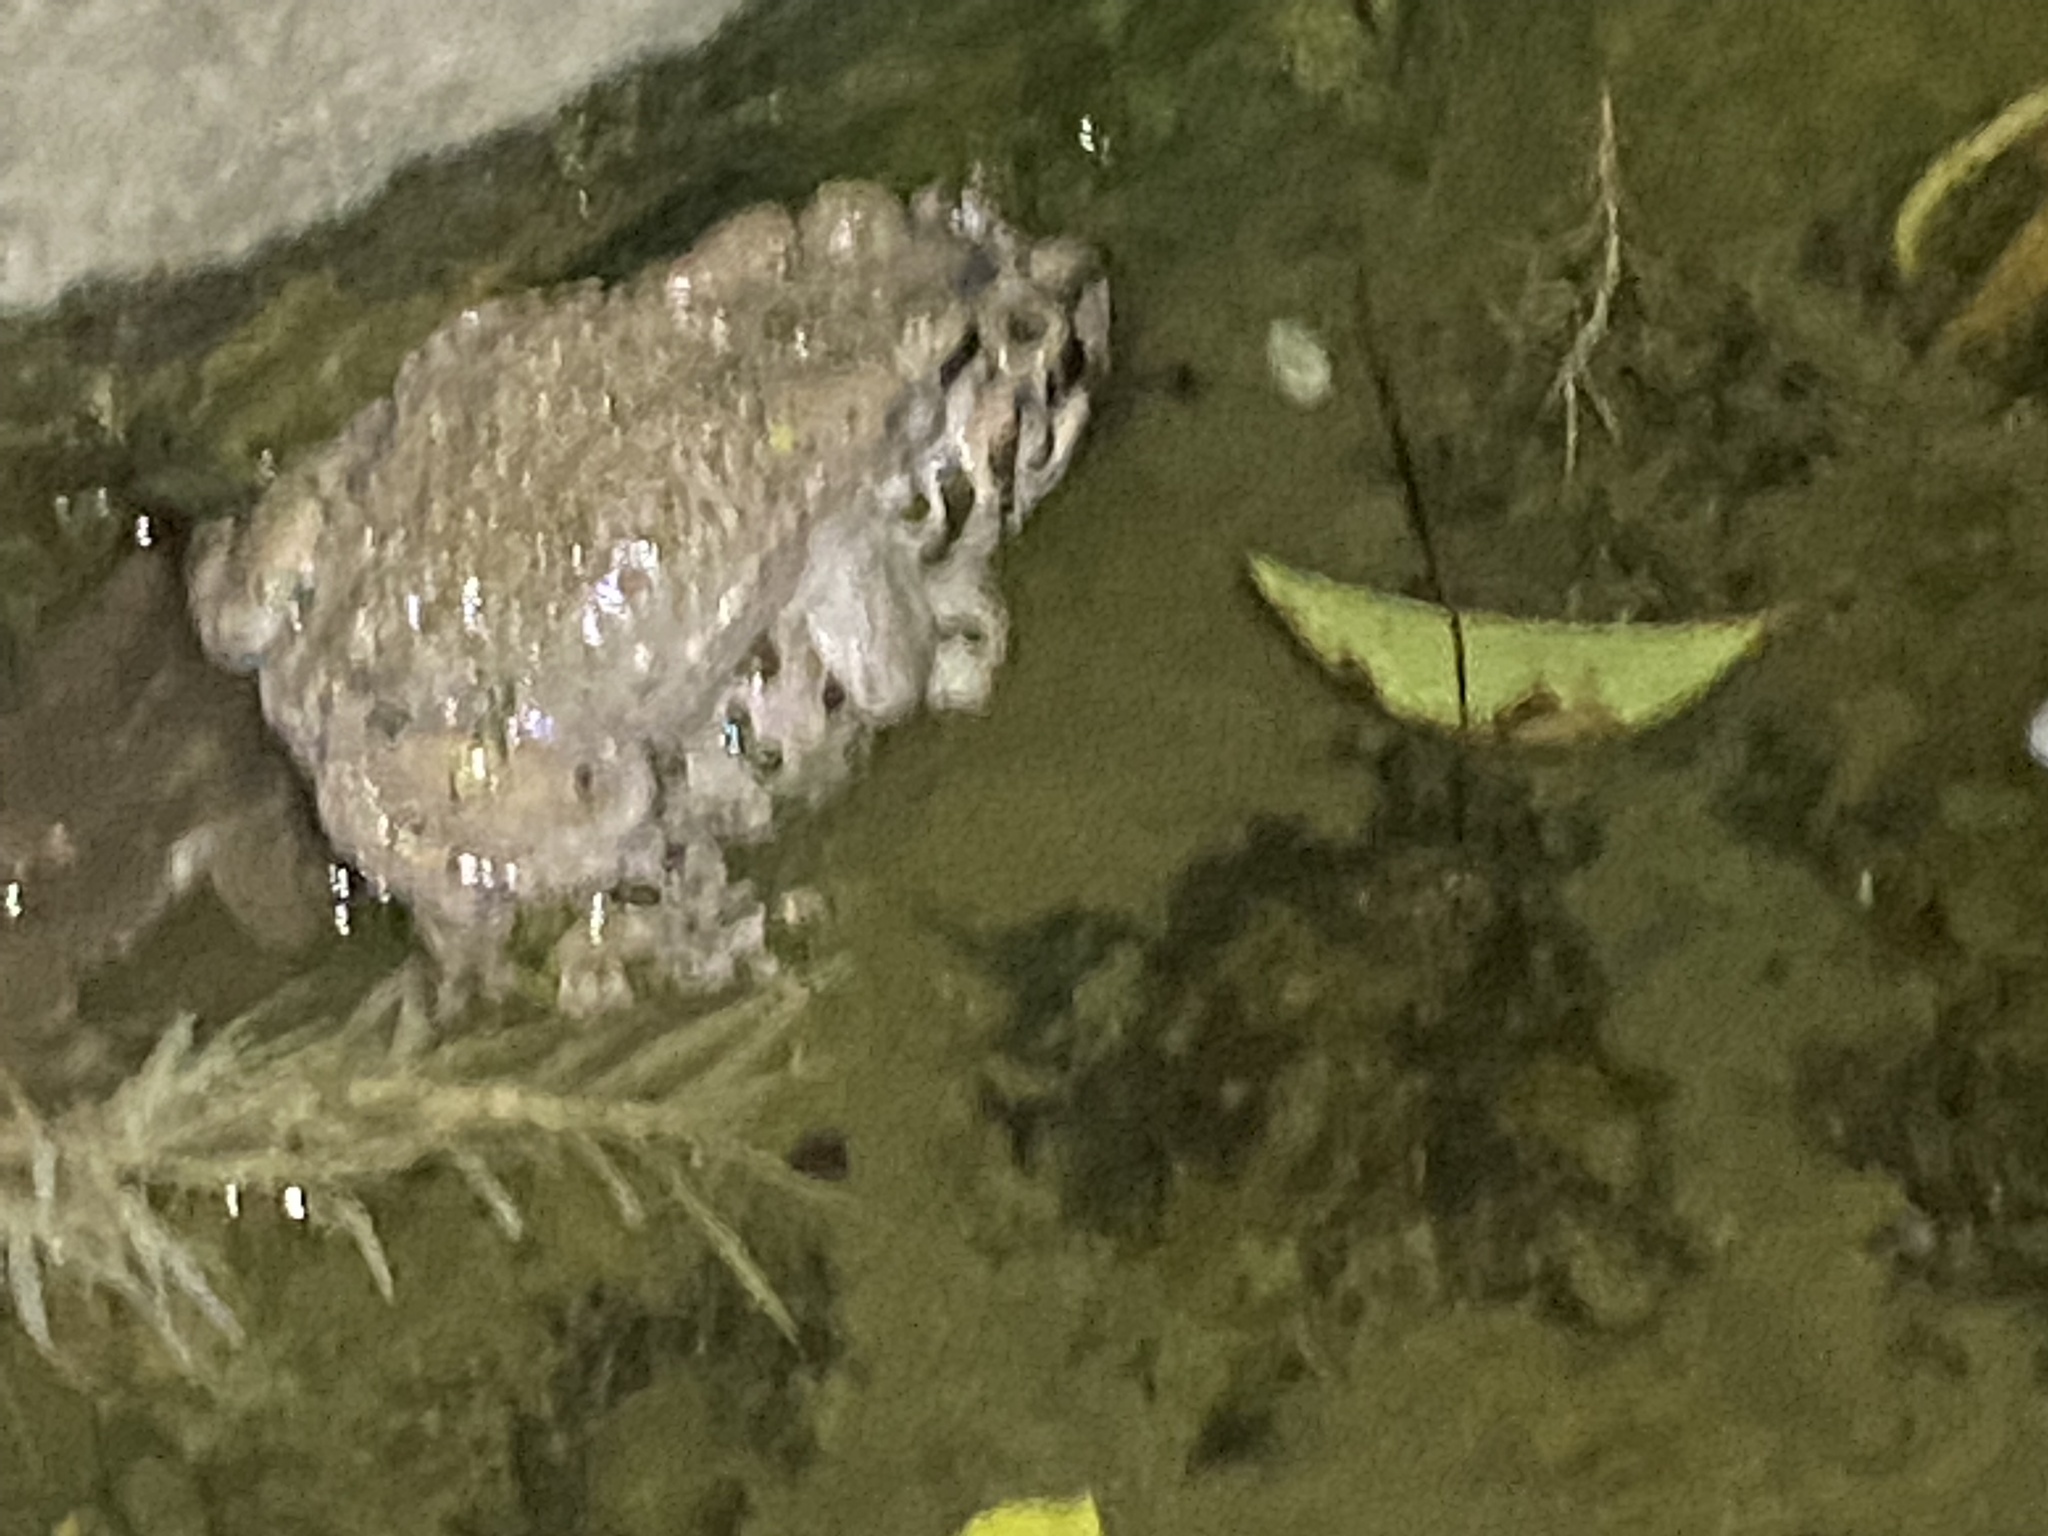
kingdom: Animalia
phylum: Chordata
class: Amphibia
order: Anura
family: Bufonidae
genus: Bufotes
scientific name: Bufotes viridis
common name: European green toad
